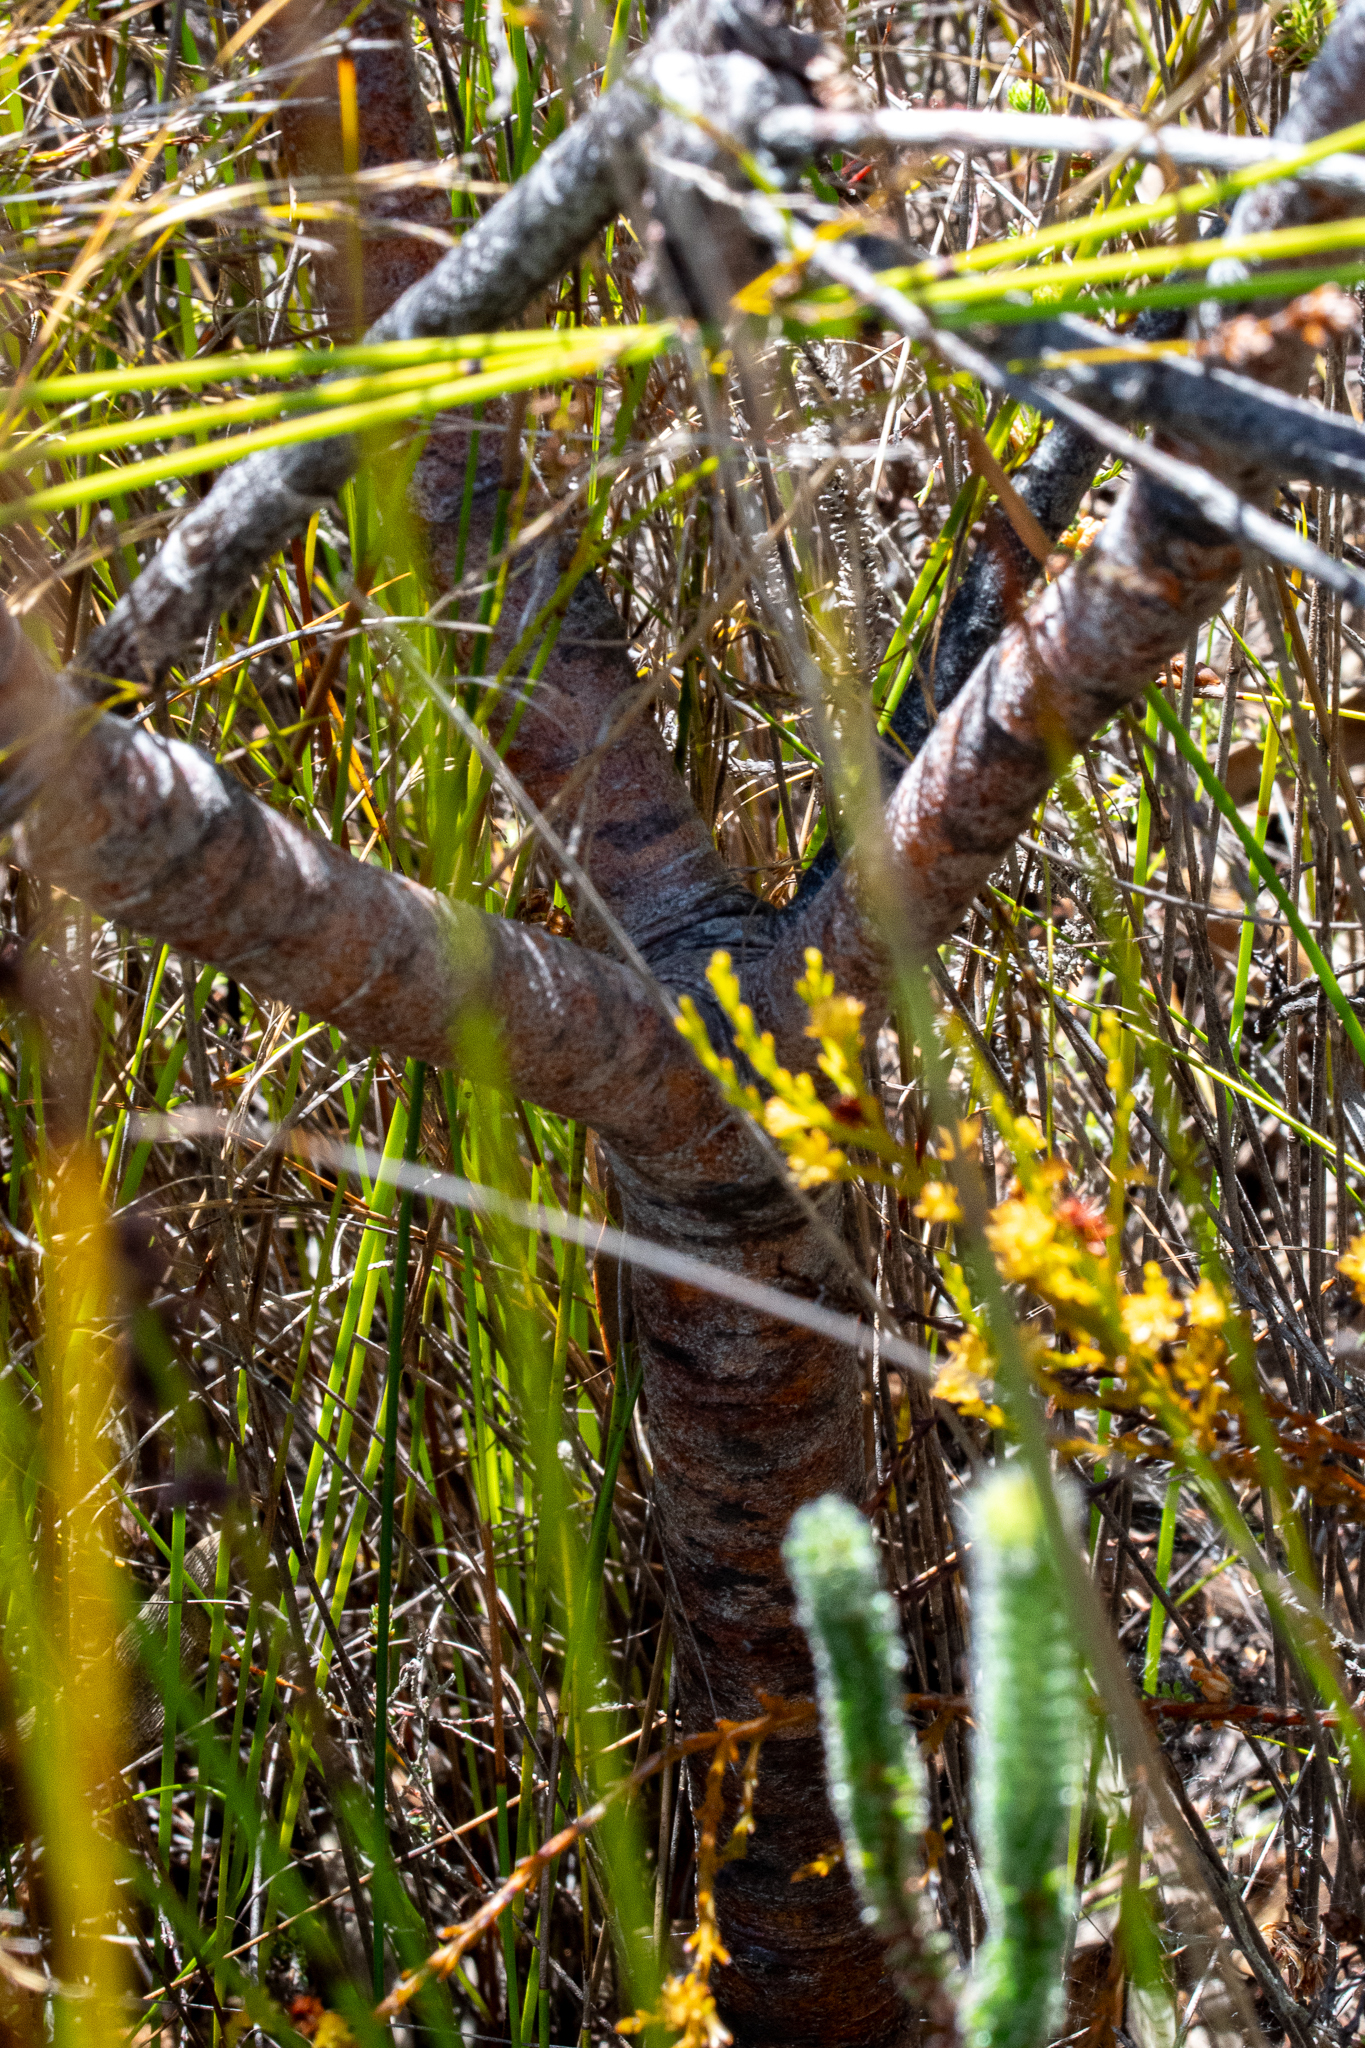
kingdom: Plantae
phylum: Tracheophyta
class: Magnoliopsida
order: Proteales
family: Proteaceae
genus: Leucadendron
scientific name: Leucadendron gandogeri
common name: Broad-leaf conebush
